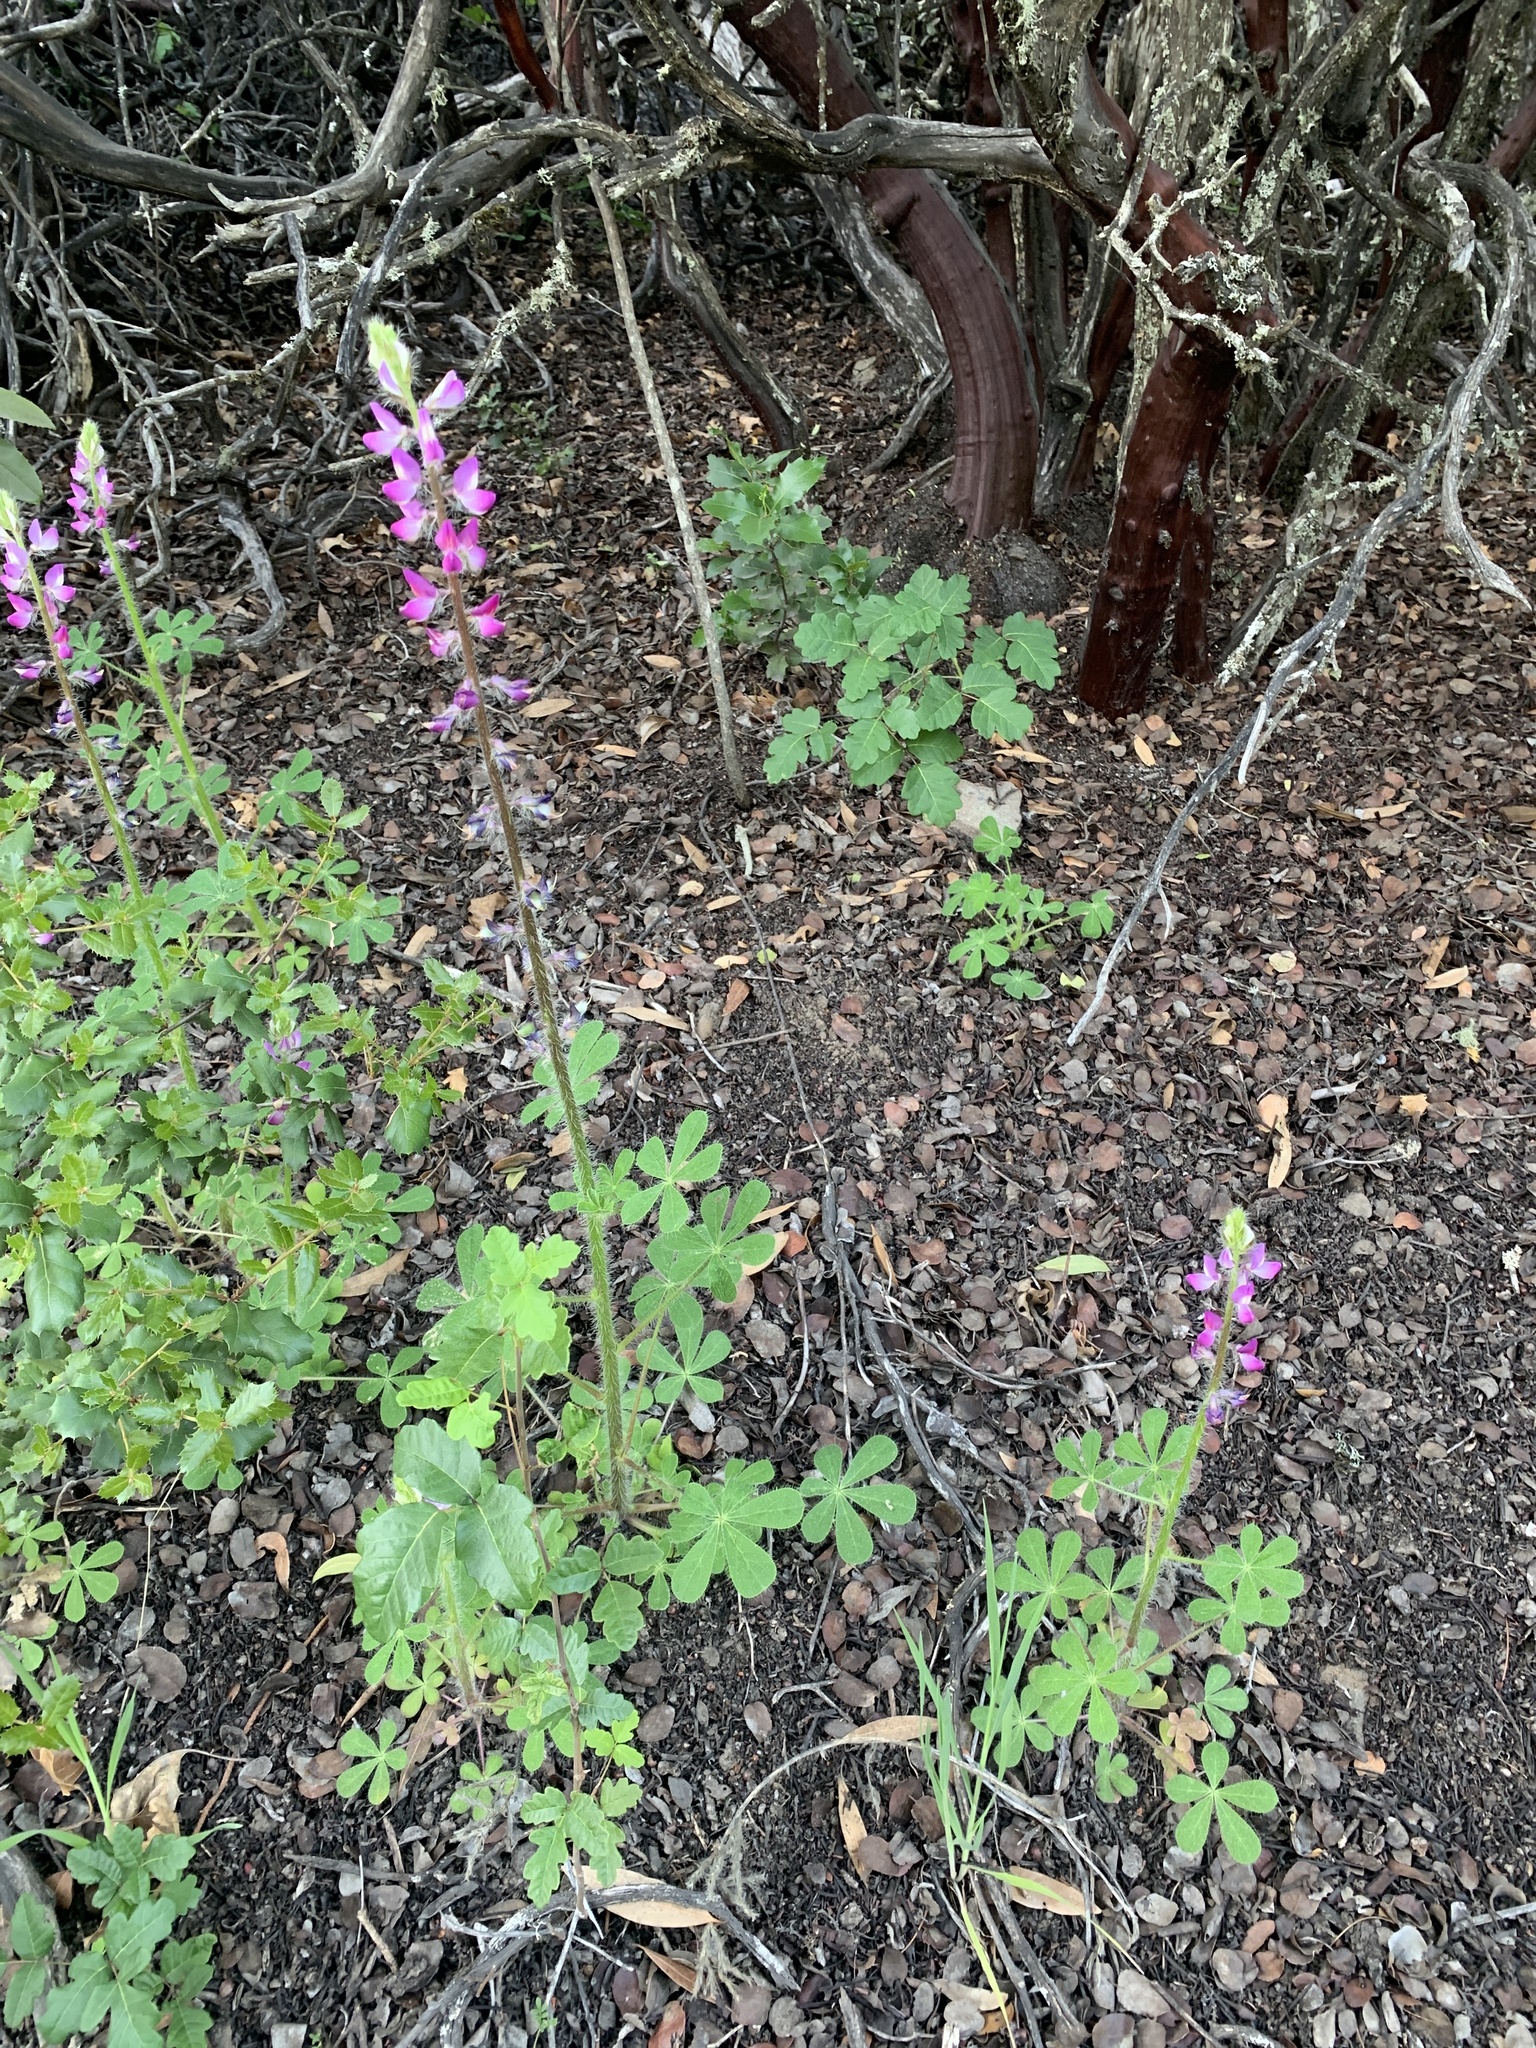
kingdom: Plantae
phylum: Tracheophyta
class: Magnoliopsida
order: Fabales
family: Fabaceae
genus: Lupinus
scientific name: Lupinus hirsutissimus
